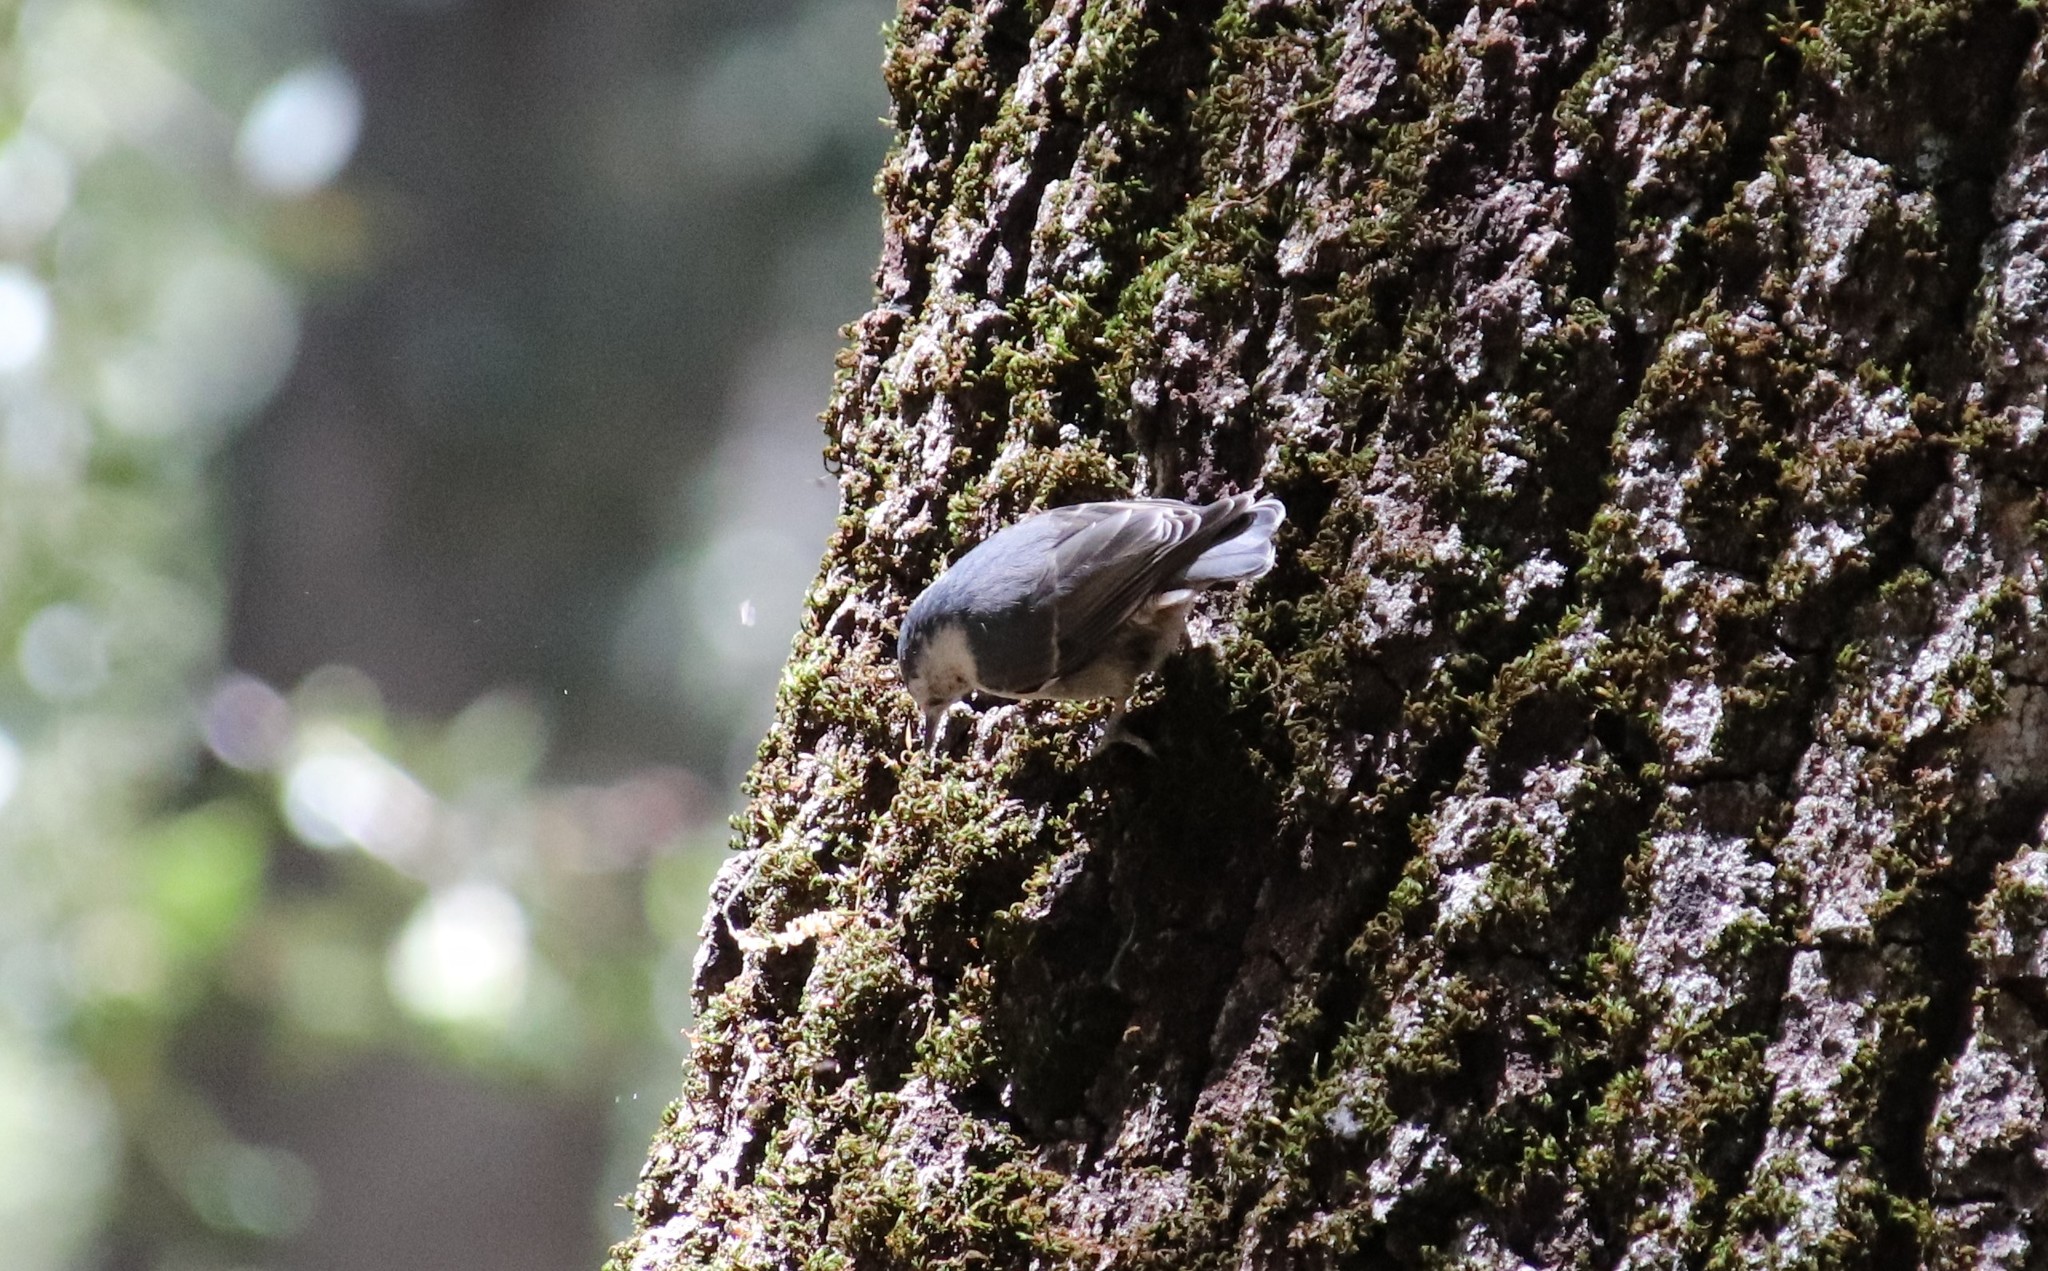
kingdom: Animalia
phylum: Chordata
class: Aves
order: Passeriformes
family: Sittidae
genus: Sitta
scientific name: Sitta carolinensis
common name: White-breasted nuthatch
